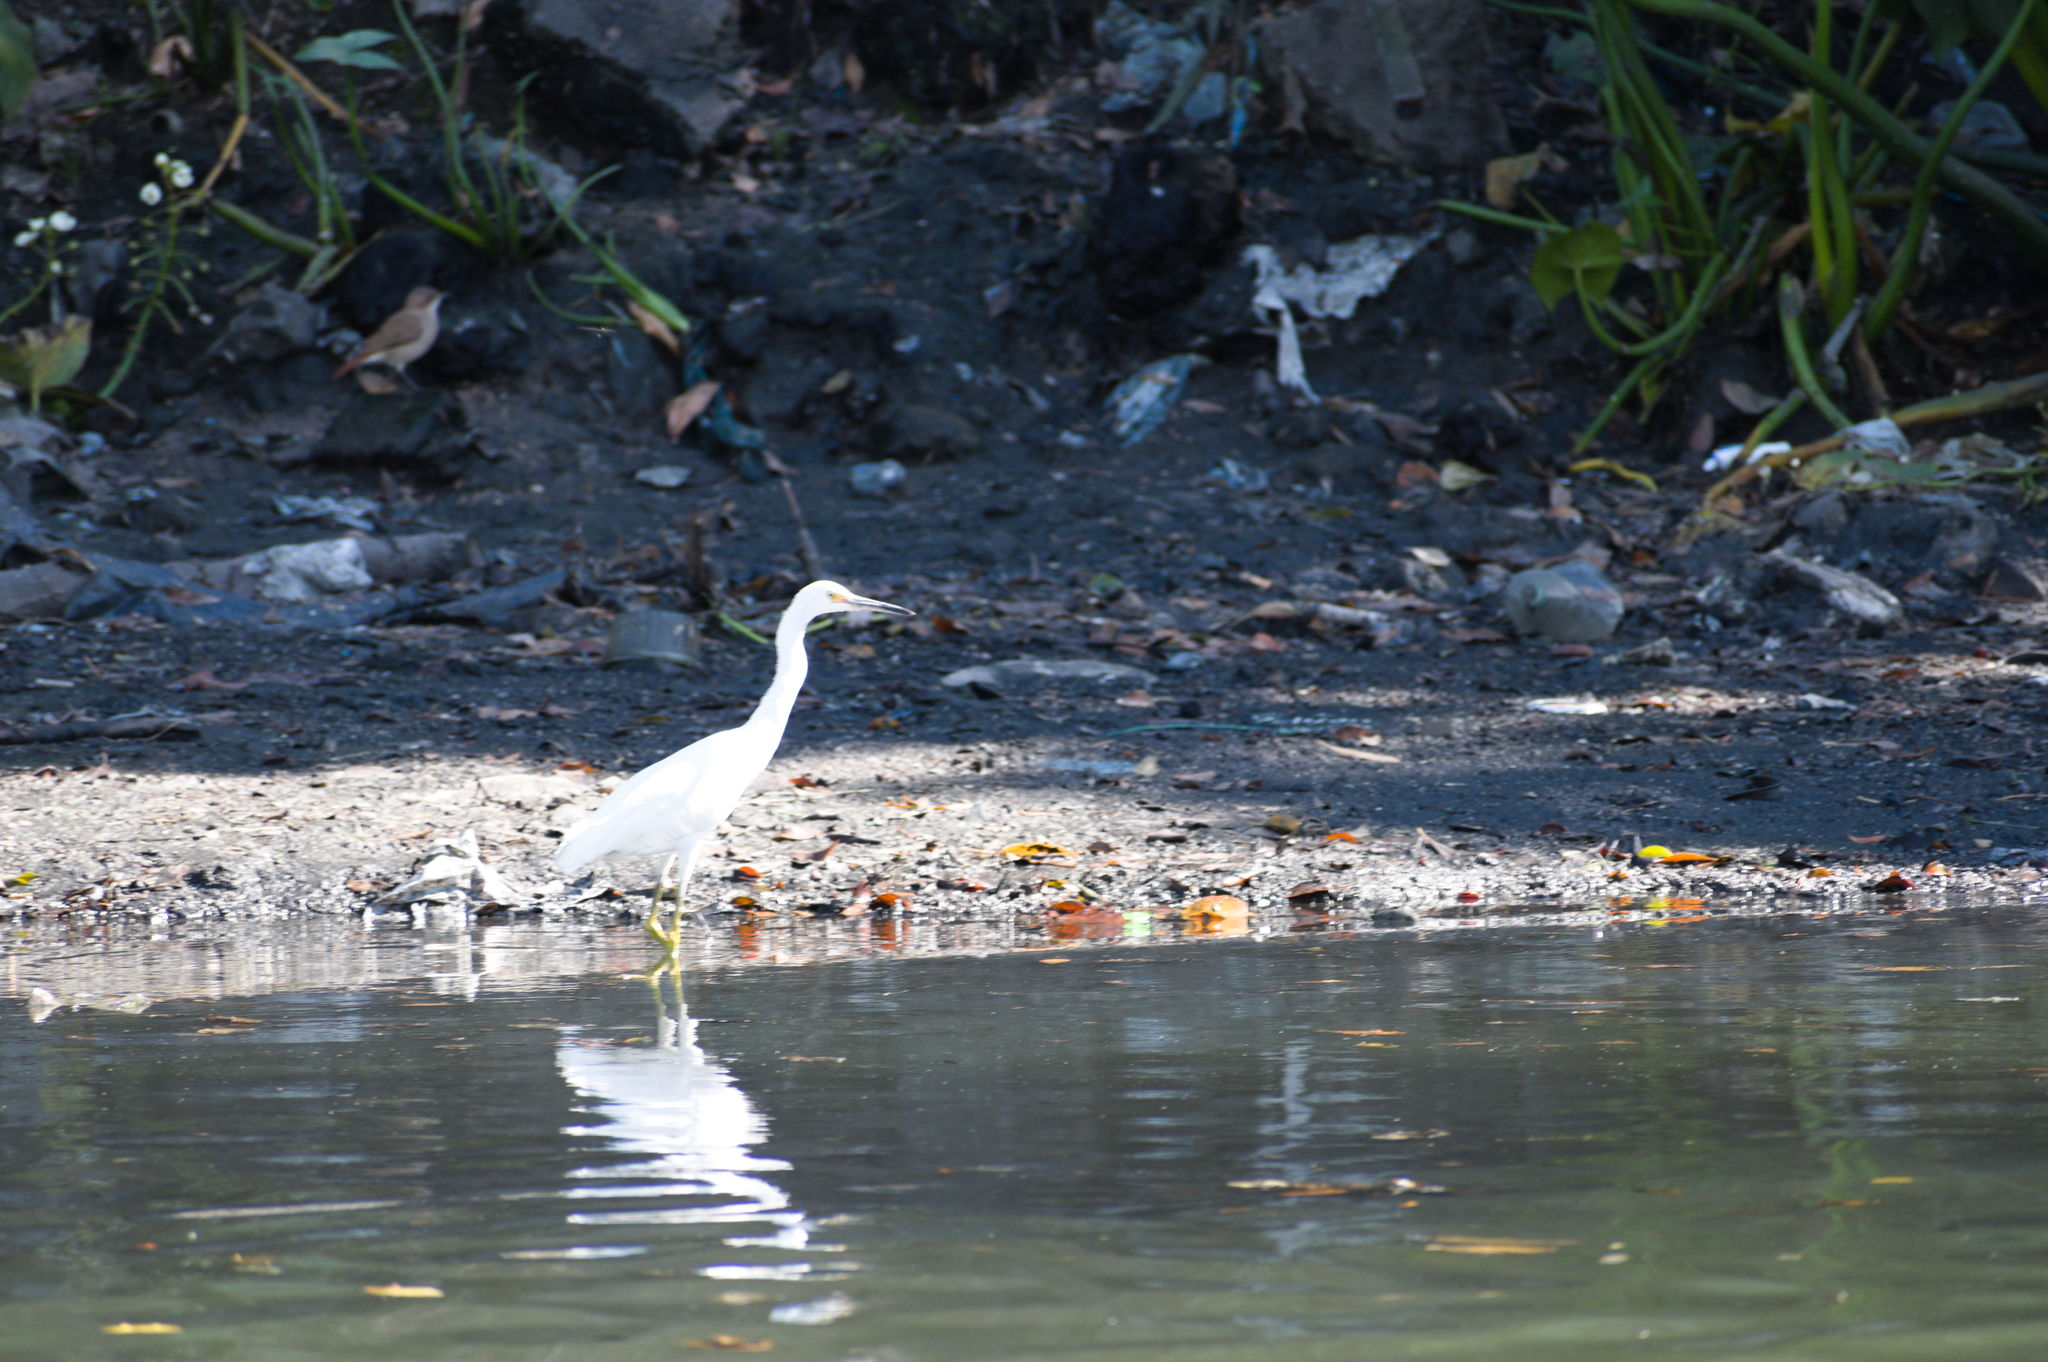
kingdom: Animalia
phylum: Chordata
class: Aves
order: Pelecaniformes
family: Ardeidae
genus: Egretta
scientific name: Egretta thula
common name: Snowy egret
